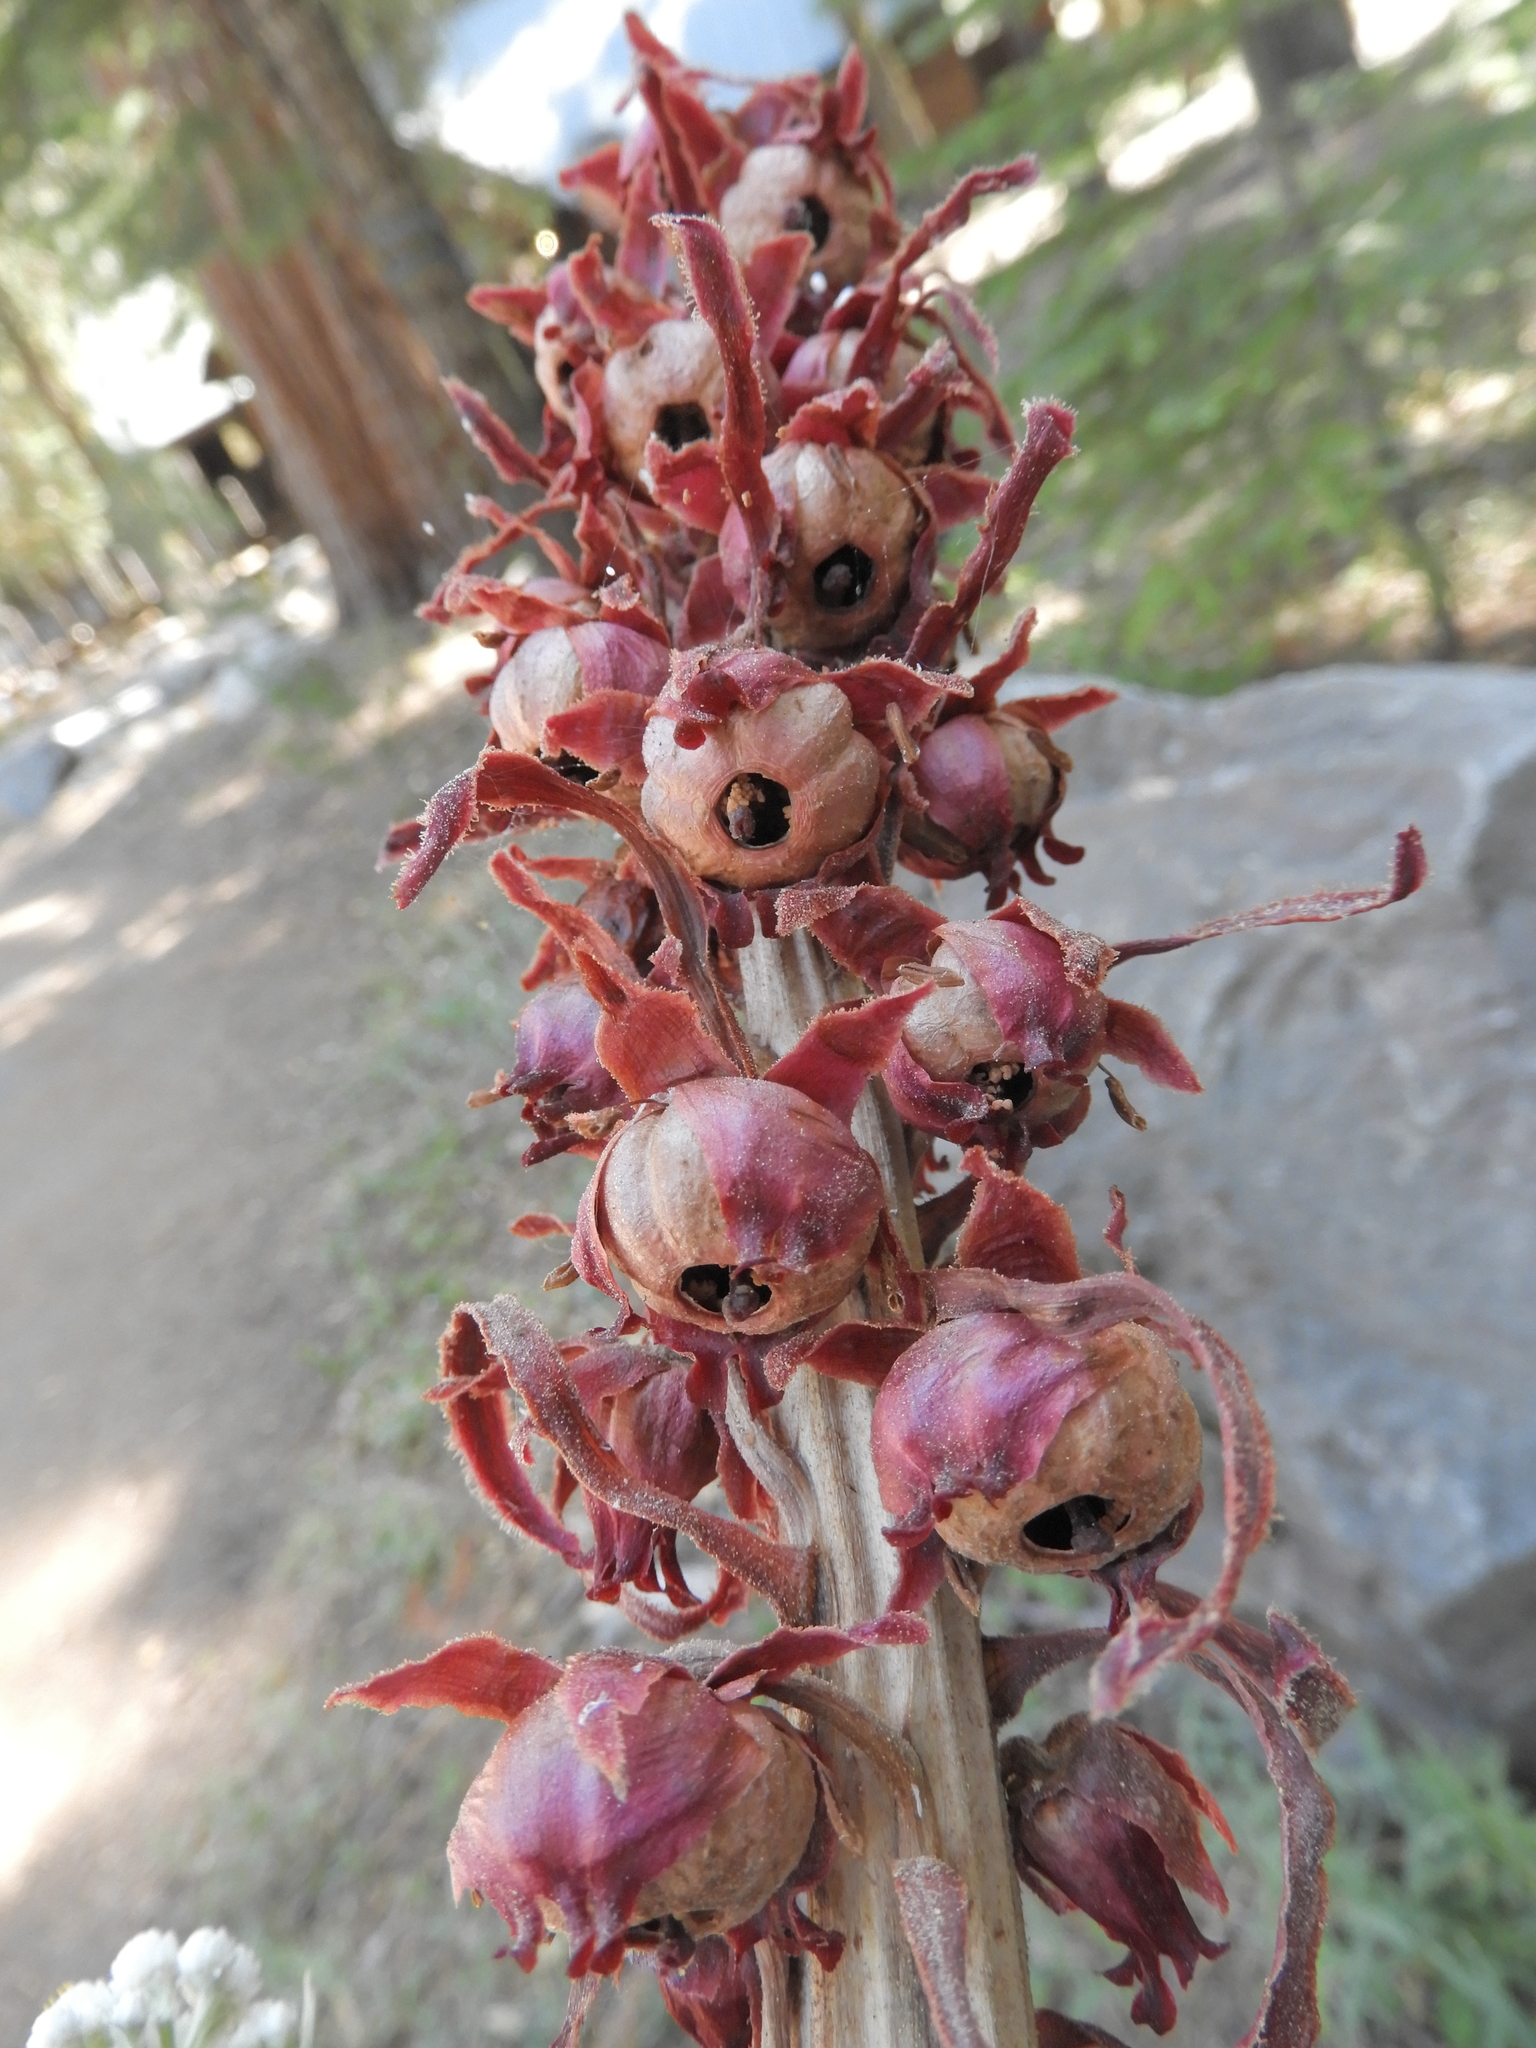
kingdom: Plantae
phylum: Tracheophyta
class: Magnoliopsida
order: Ericales
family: Ericaceae
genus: Sarcodes
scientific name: Sarcodes sanguinea
